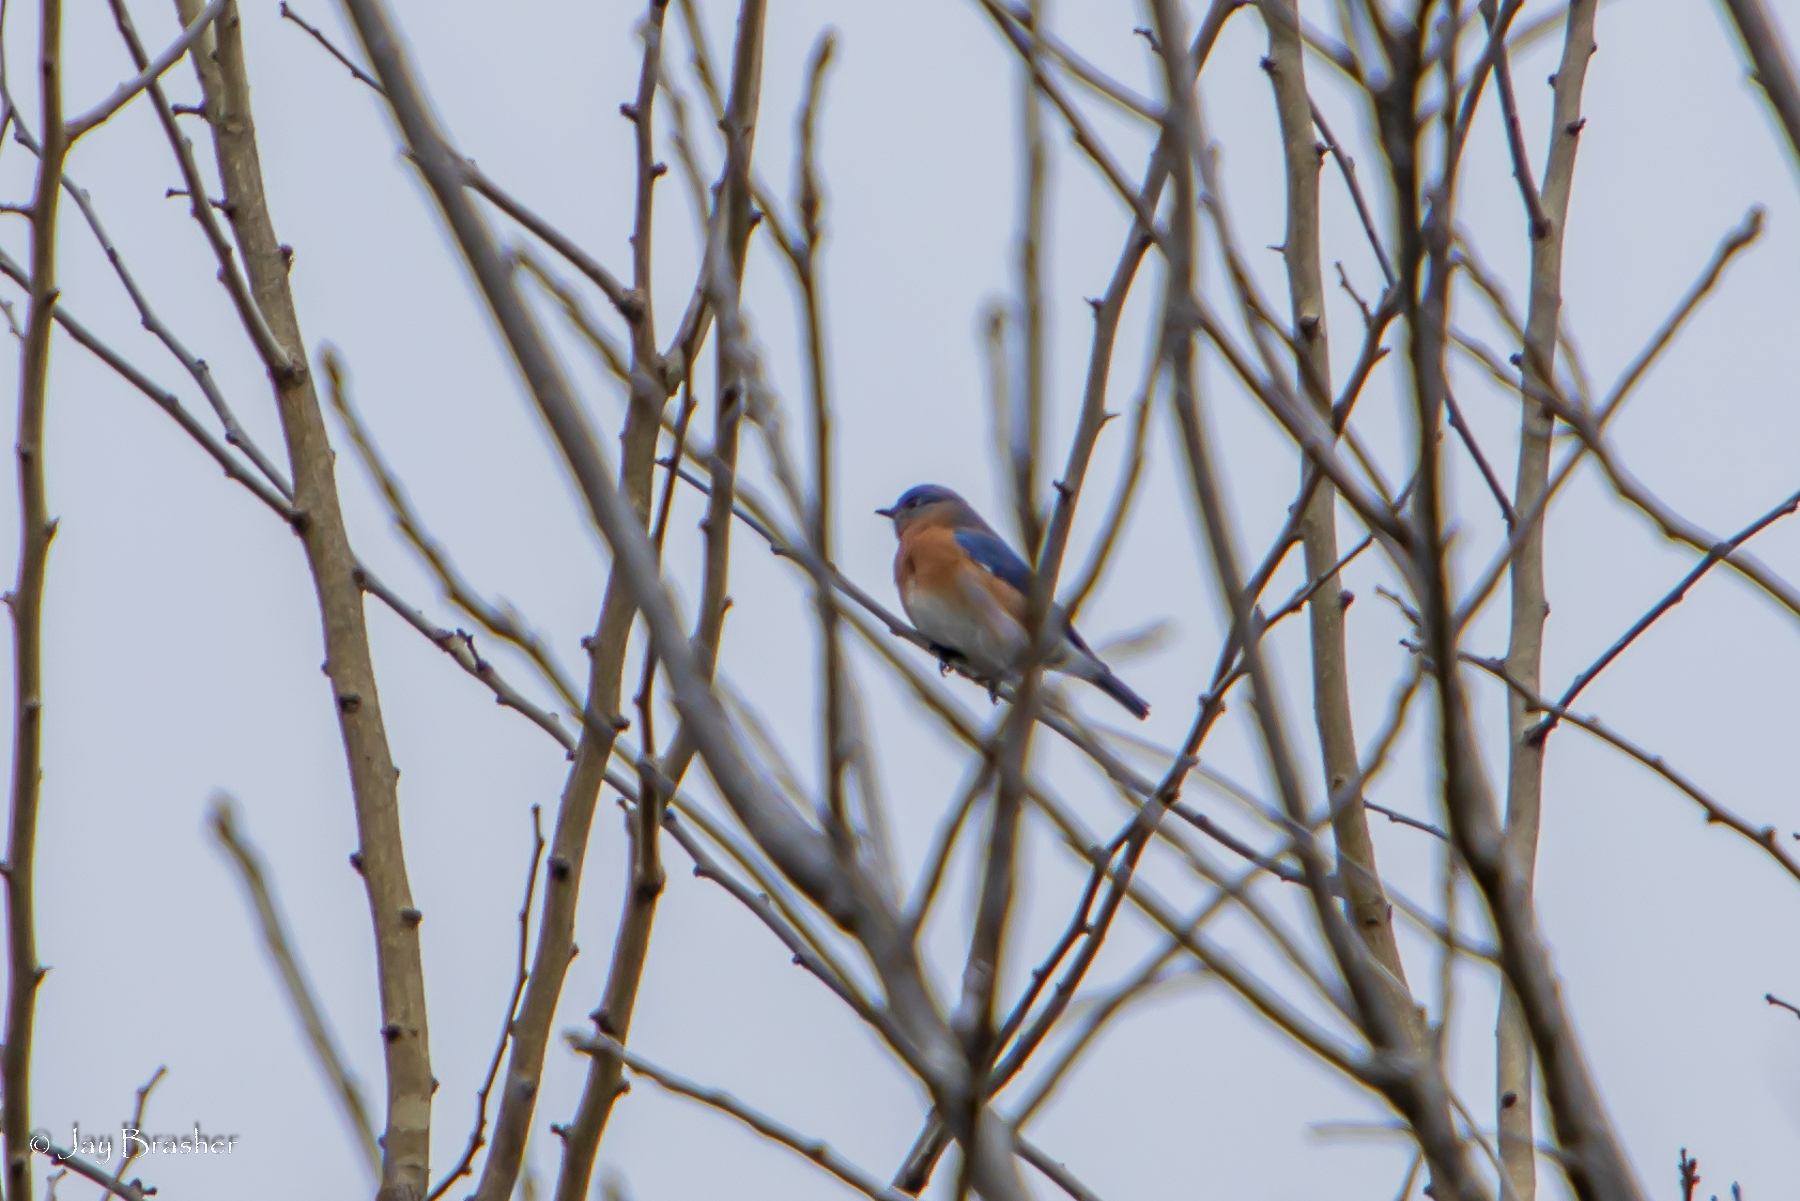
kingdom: Animalia
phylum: Chordata
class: Aves
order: Passeriformes
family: Turdidae
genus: Sialia
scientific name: Sialia sialis
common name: Eastern bluebird
